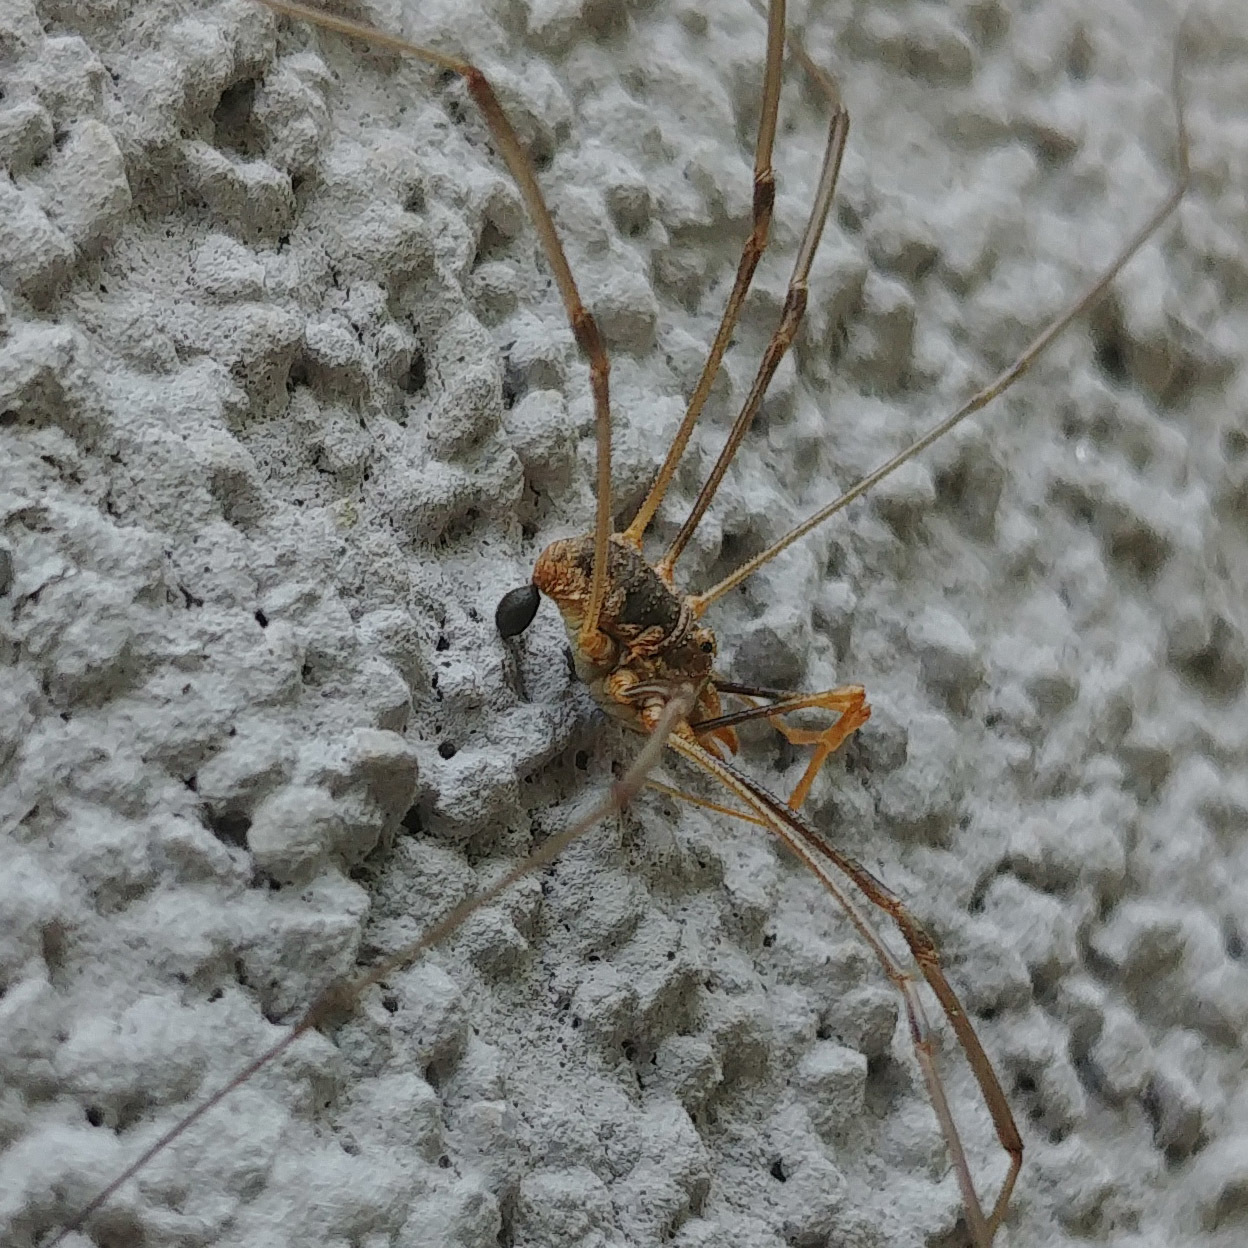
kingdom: Animalia
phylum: Arthropoda
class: Arachnida
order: Opiliones
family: Phalangiidae
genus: Phalangium
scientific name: Phalangium opilio
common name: Daddy longleg
